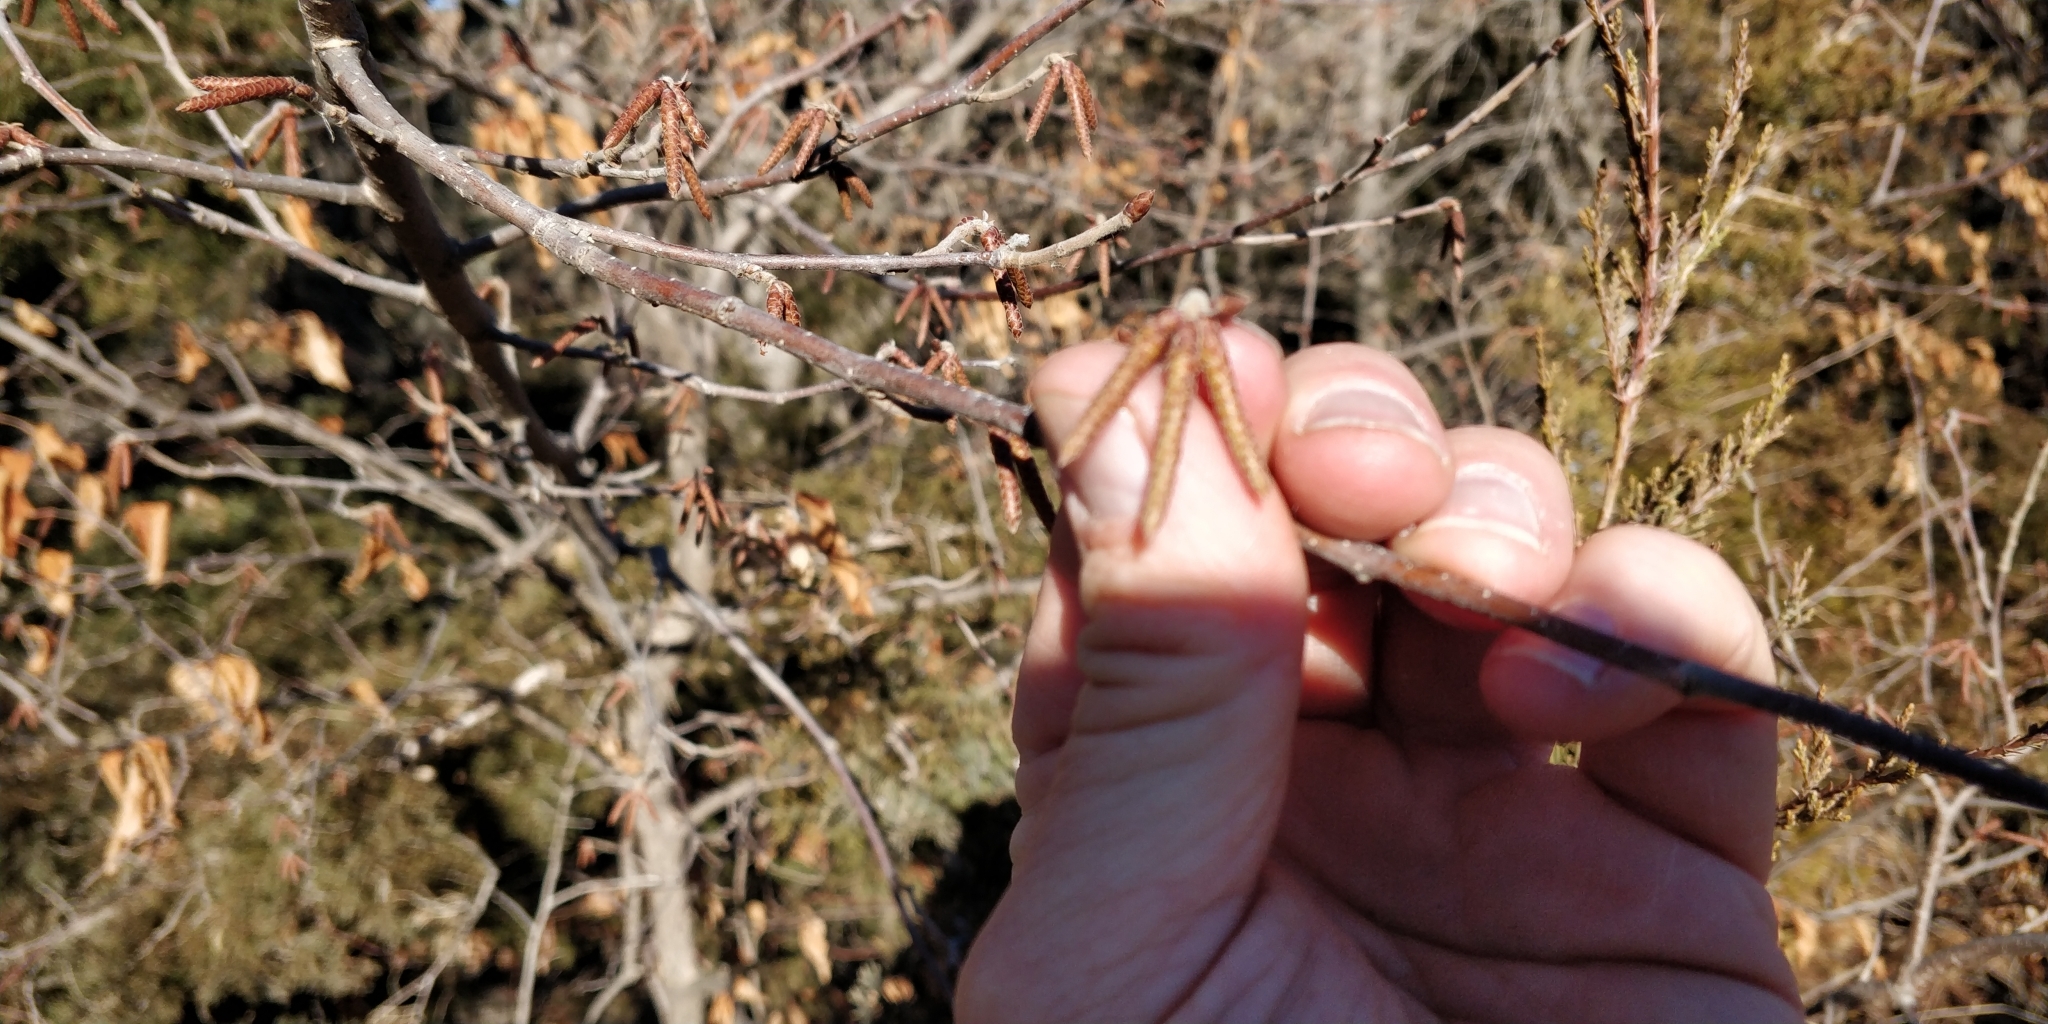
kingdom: Plantae
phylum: Tracheophyta
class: Magnoliopsida
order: Fagales
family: Betulaceae
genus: Ostrya
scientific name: Ostrya virginiana
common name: Ironwood
